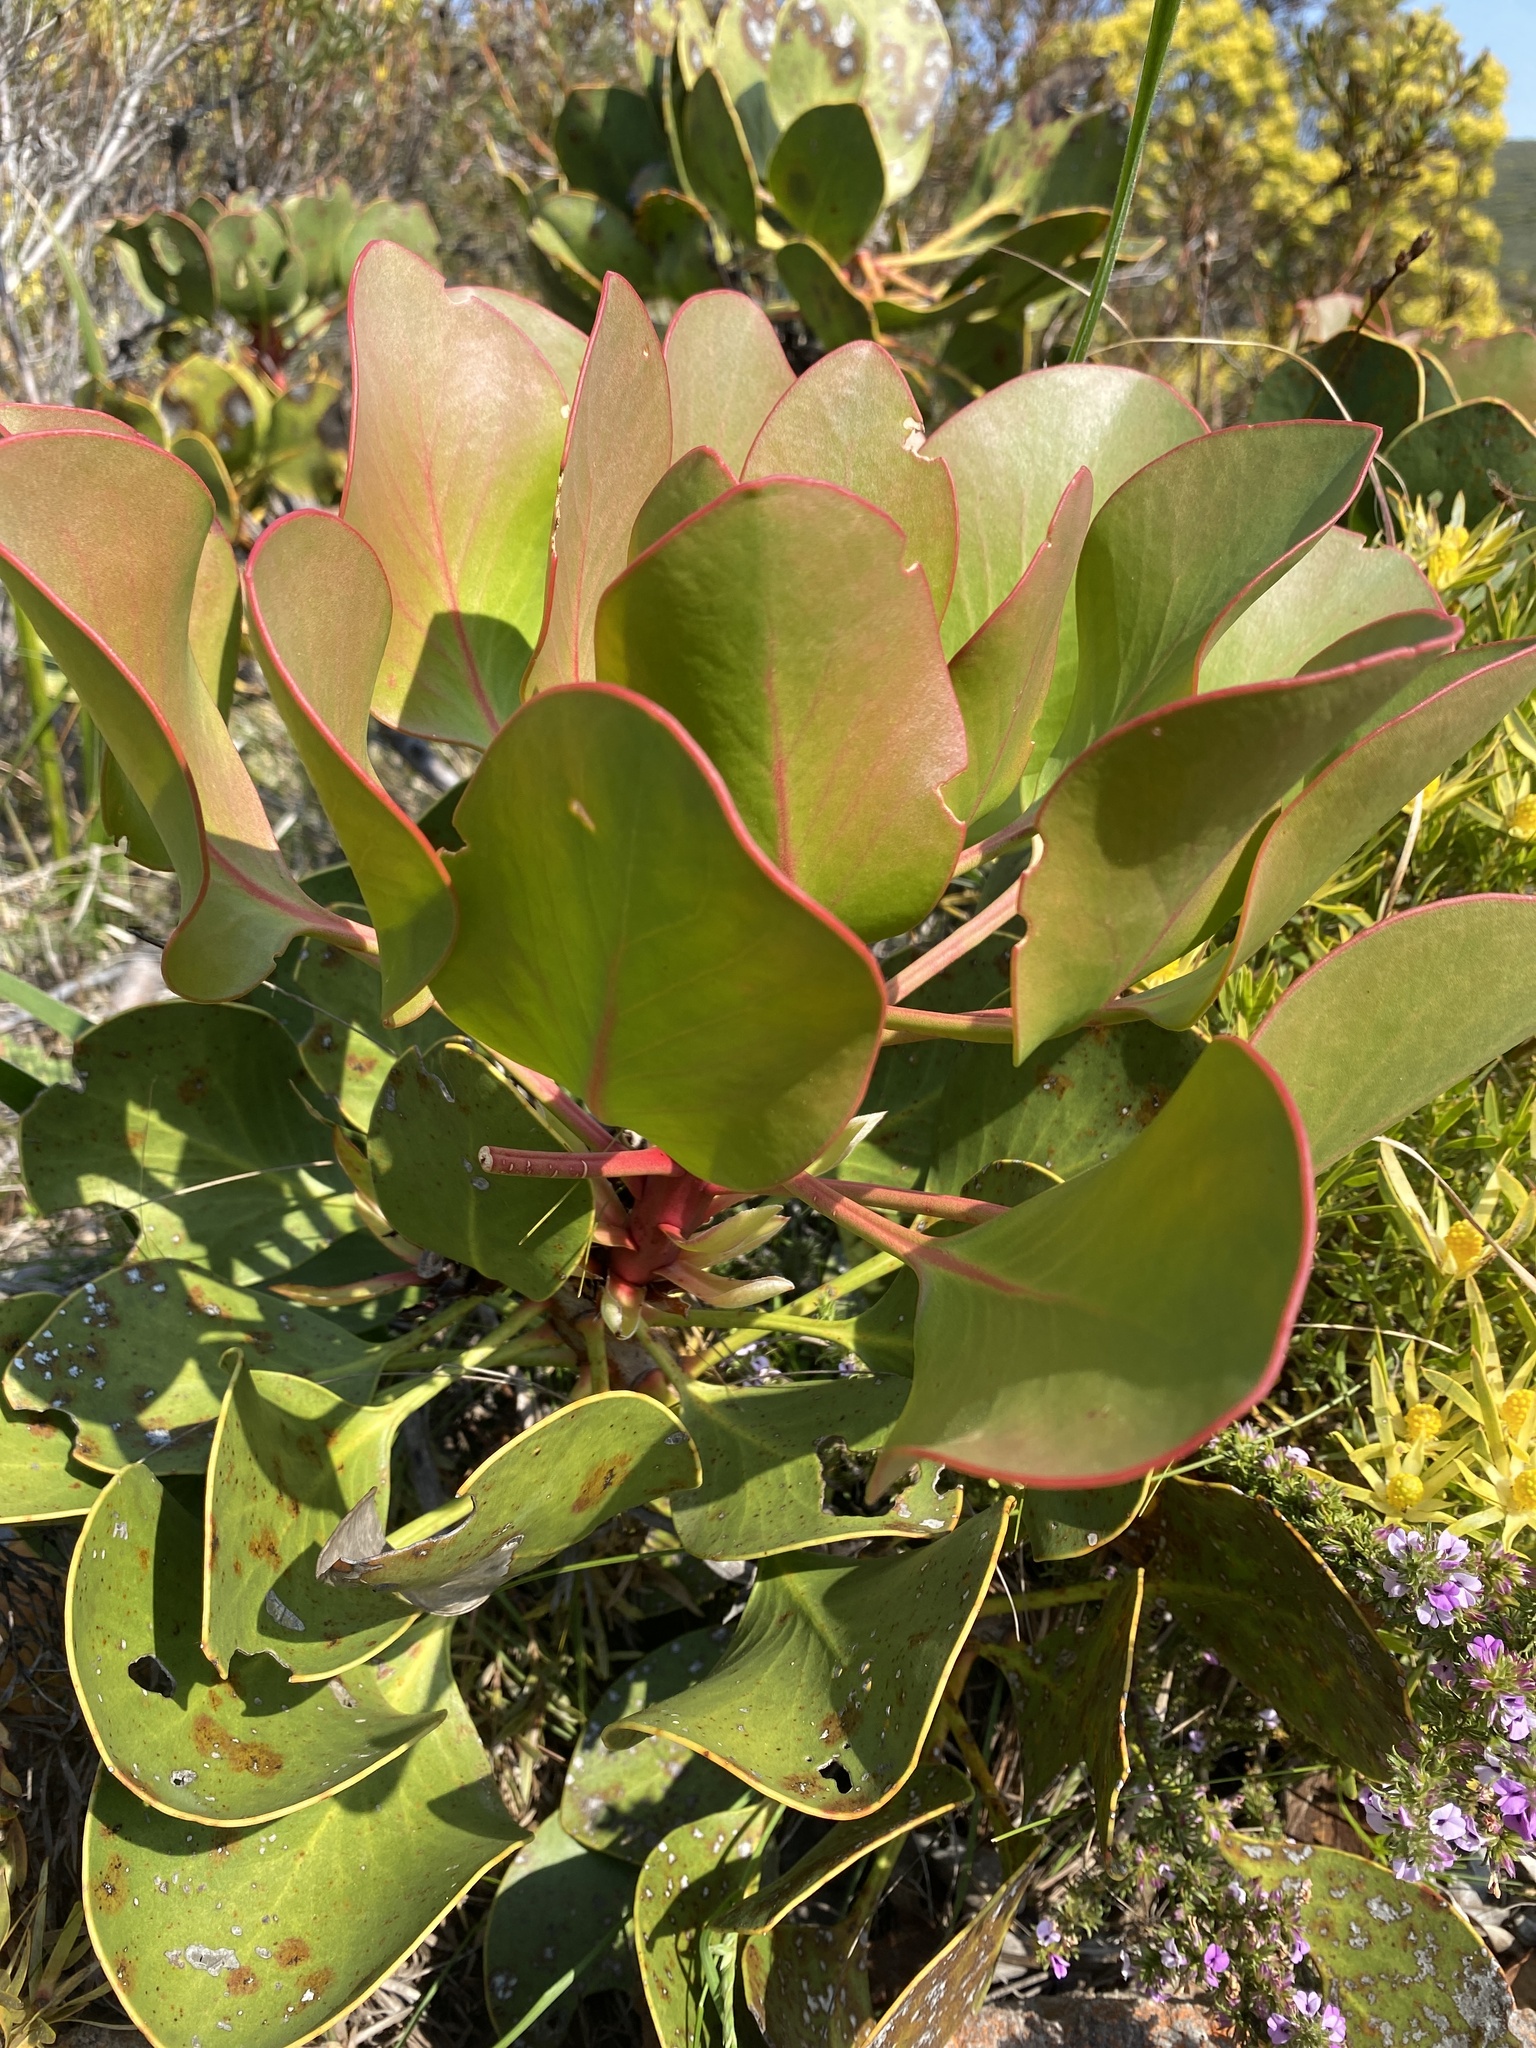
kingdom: Plantae
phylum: Tracheophyta
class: Magnoliopsida
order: Proteales
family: Proteaceae
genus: Protea
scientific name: Protea cynaroides
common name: King protea
